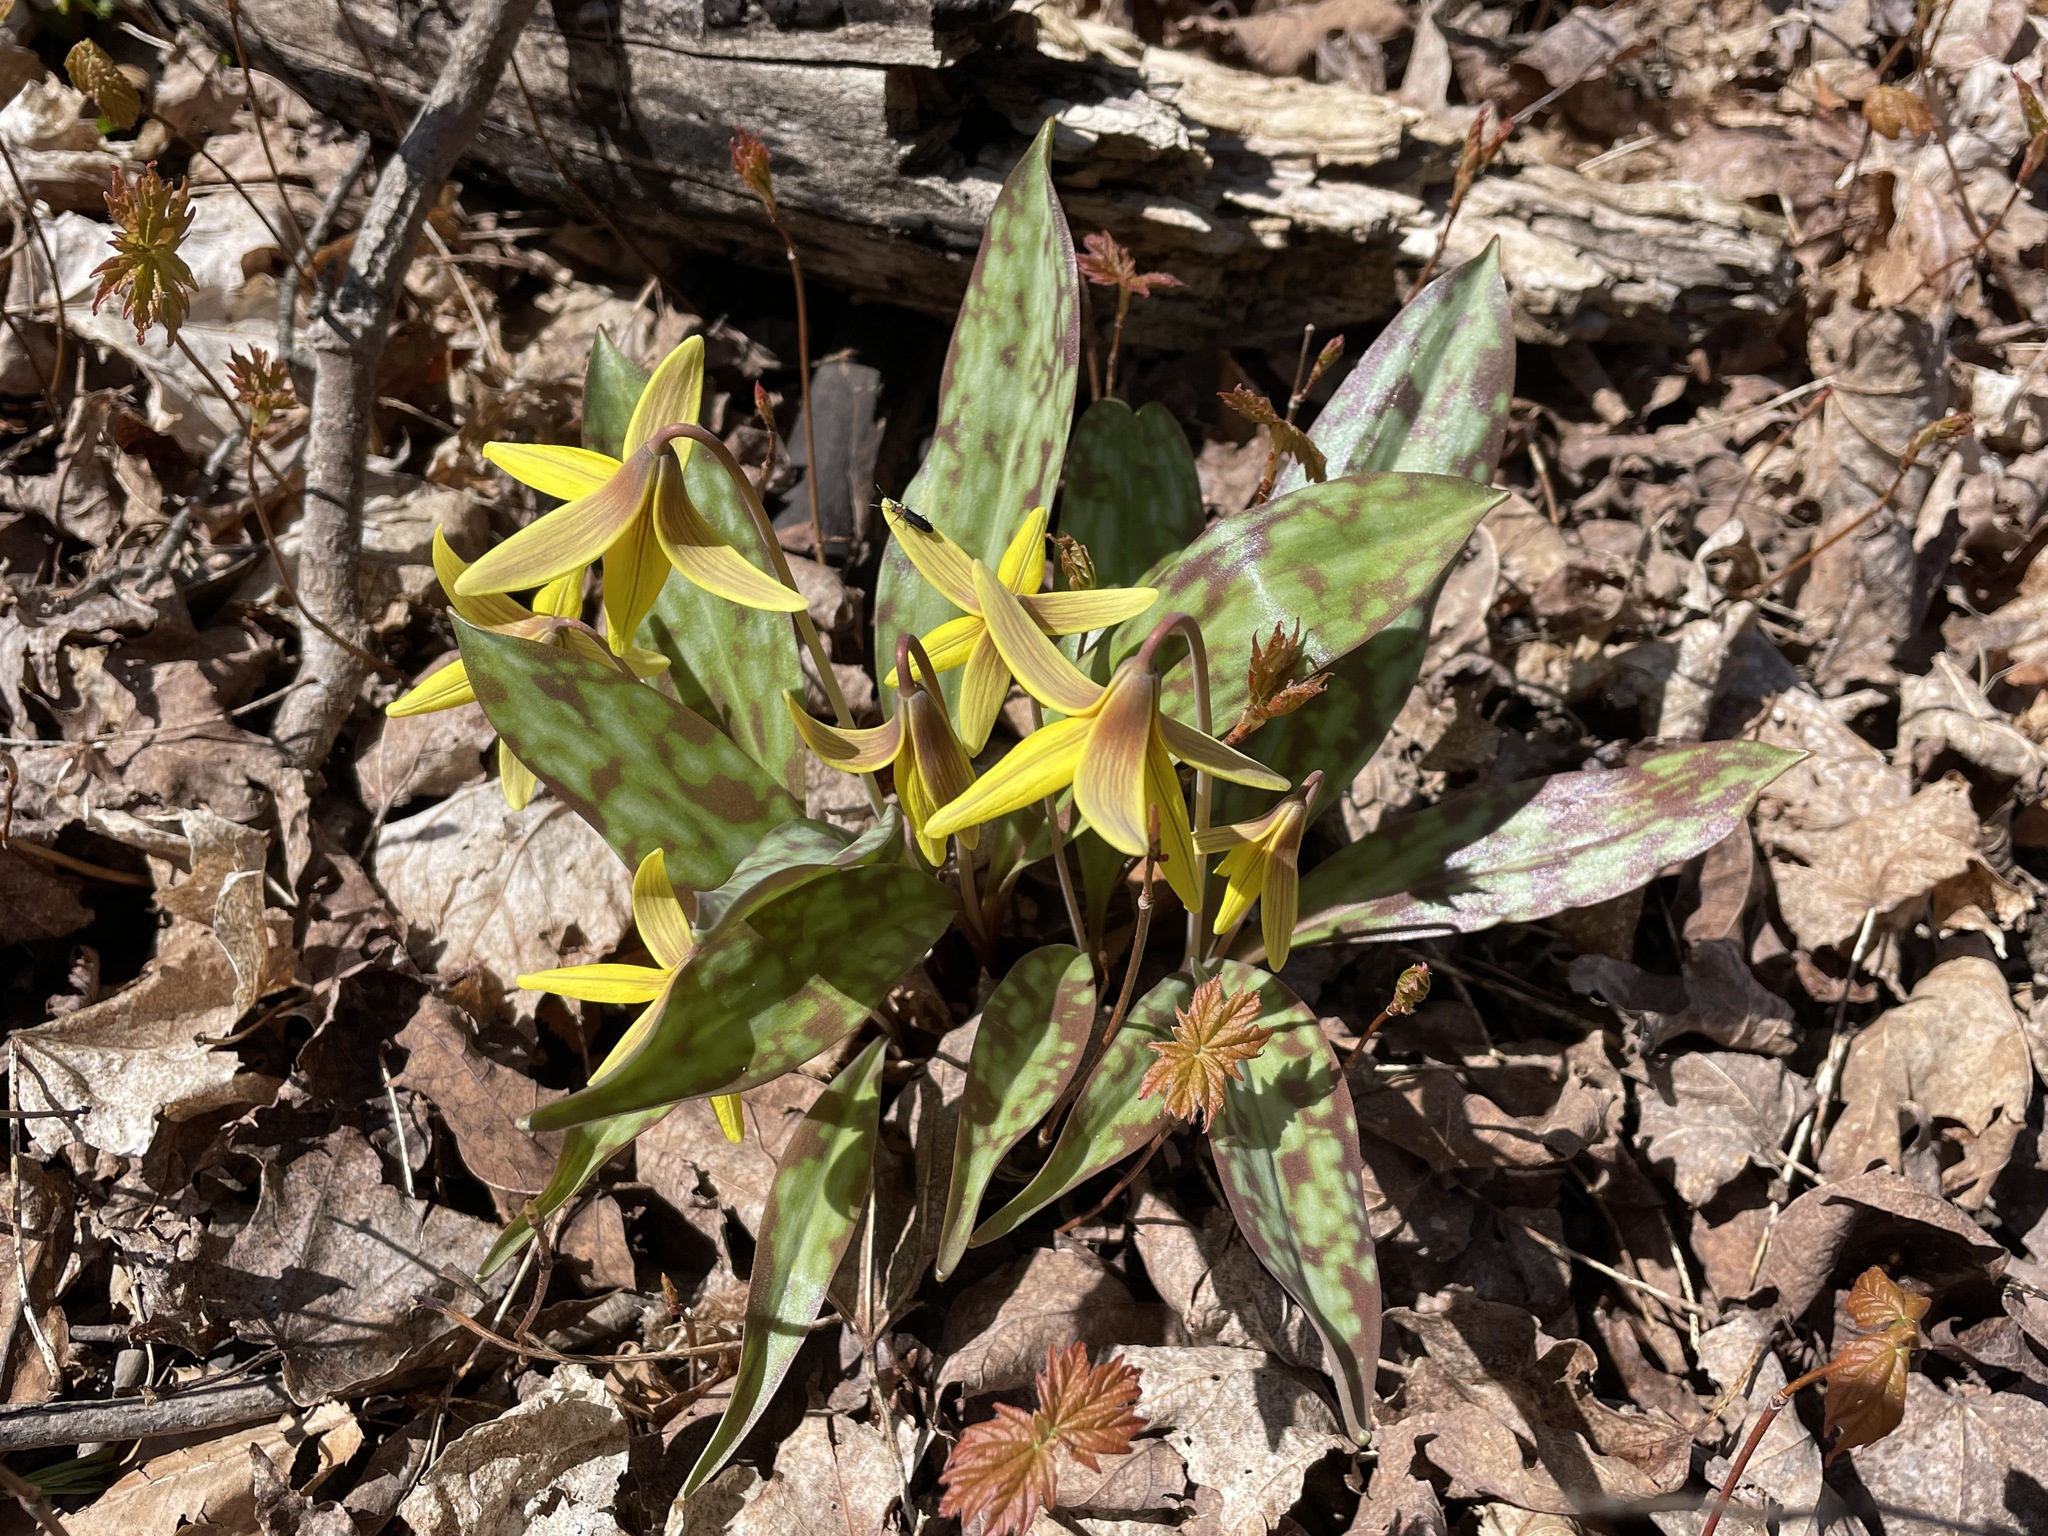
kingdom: Plantae
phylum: Tracheophyta
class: Liliopsida
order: Liliales
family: Liliaceae
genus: Erythronium
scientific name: Erythronium americanum
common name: Yellow adder's-tongue
